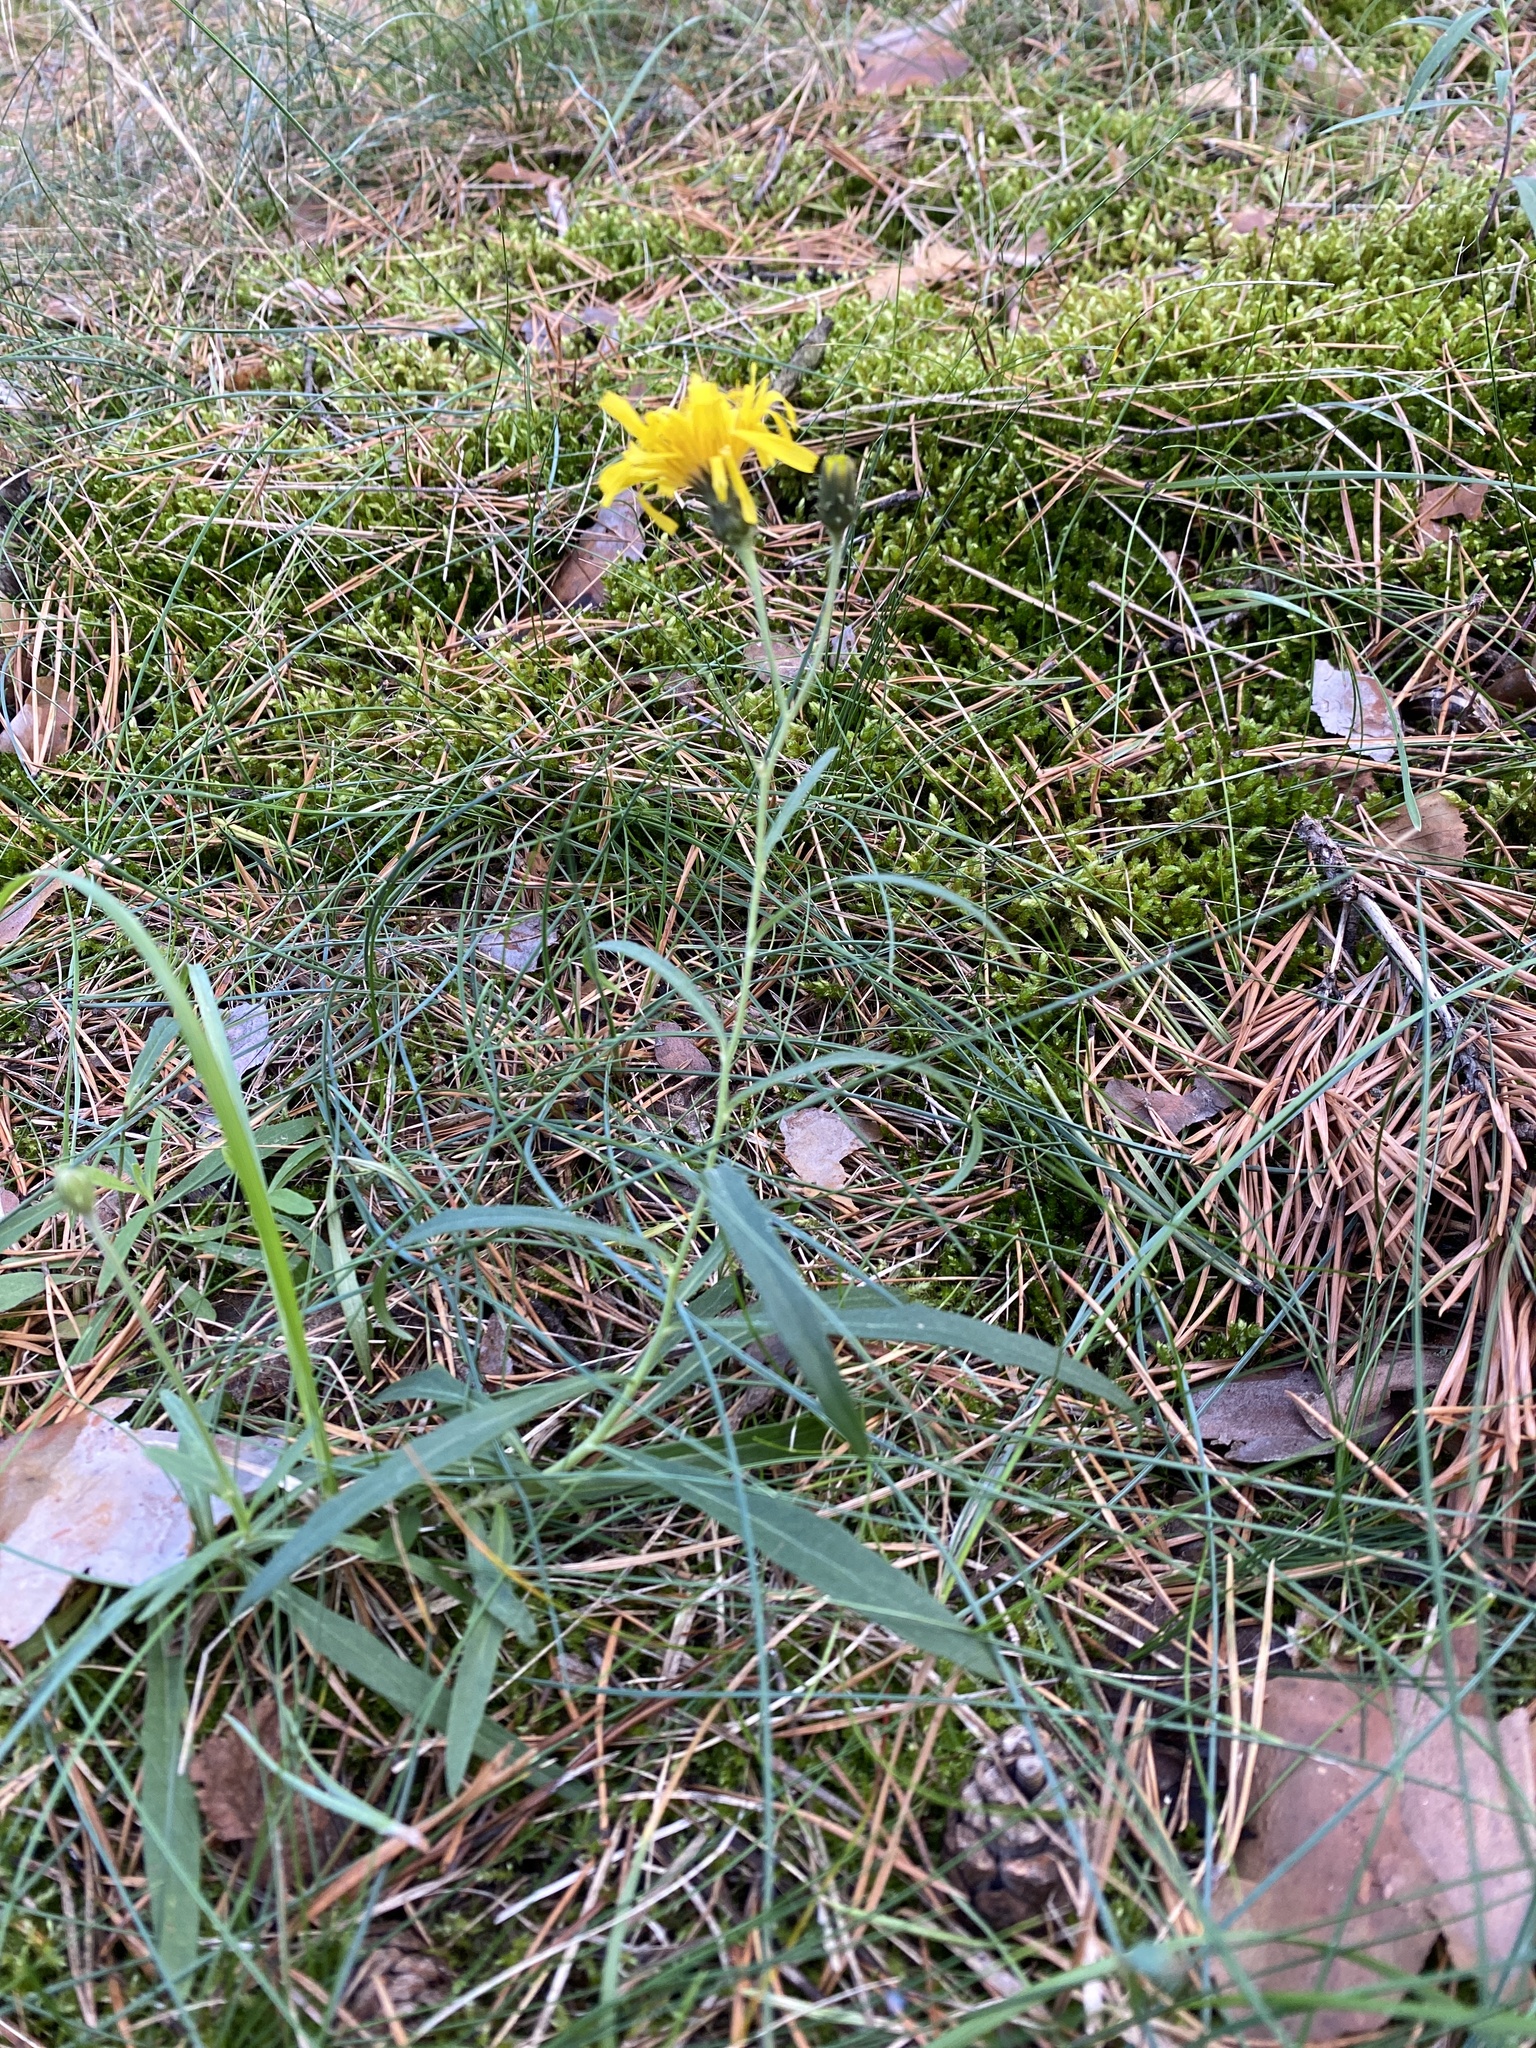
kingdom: Plantae
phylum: Tracheophyta
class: Magnoliopsida
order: Asterales
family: Asteraceae
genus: Hieracium
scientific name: Hieracium umbellatum
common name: Northern hawkweed
